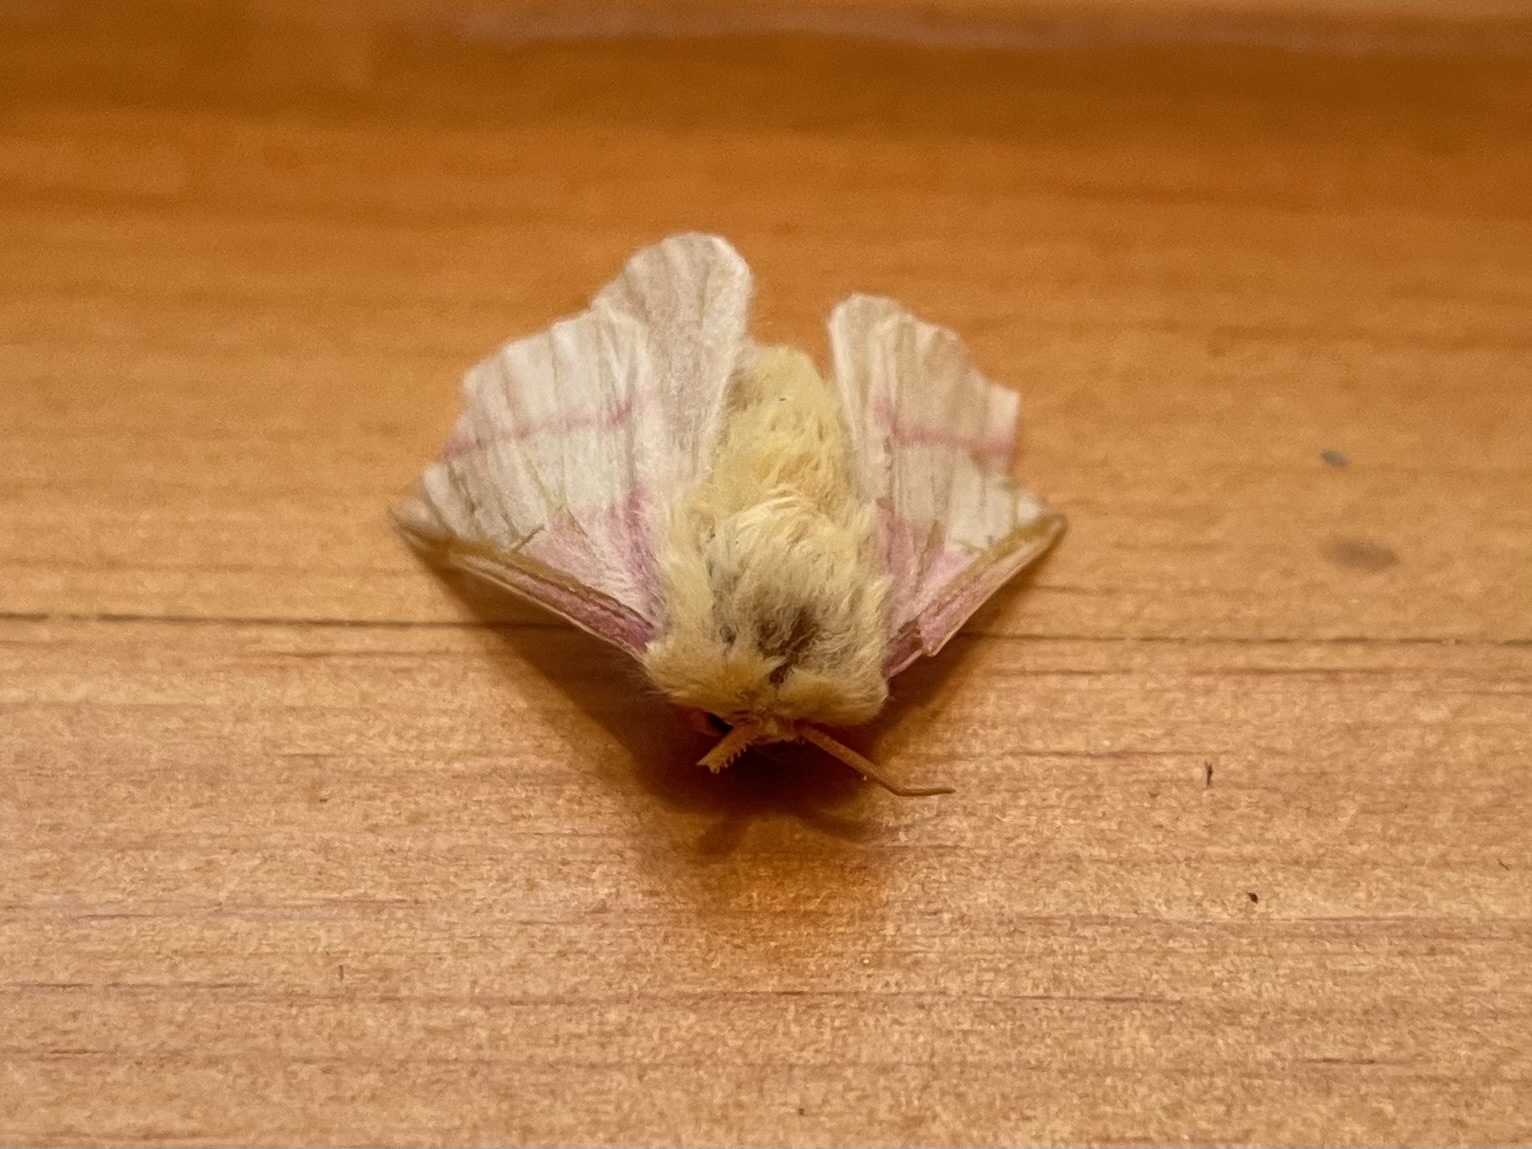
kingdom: Animalia
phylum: Arthropoda
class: Insecta
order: Lepidoptera
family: Saturniidae
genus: Dryocampa
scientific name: Dryocampa rubicunda
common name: Rosy maple moth
